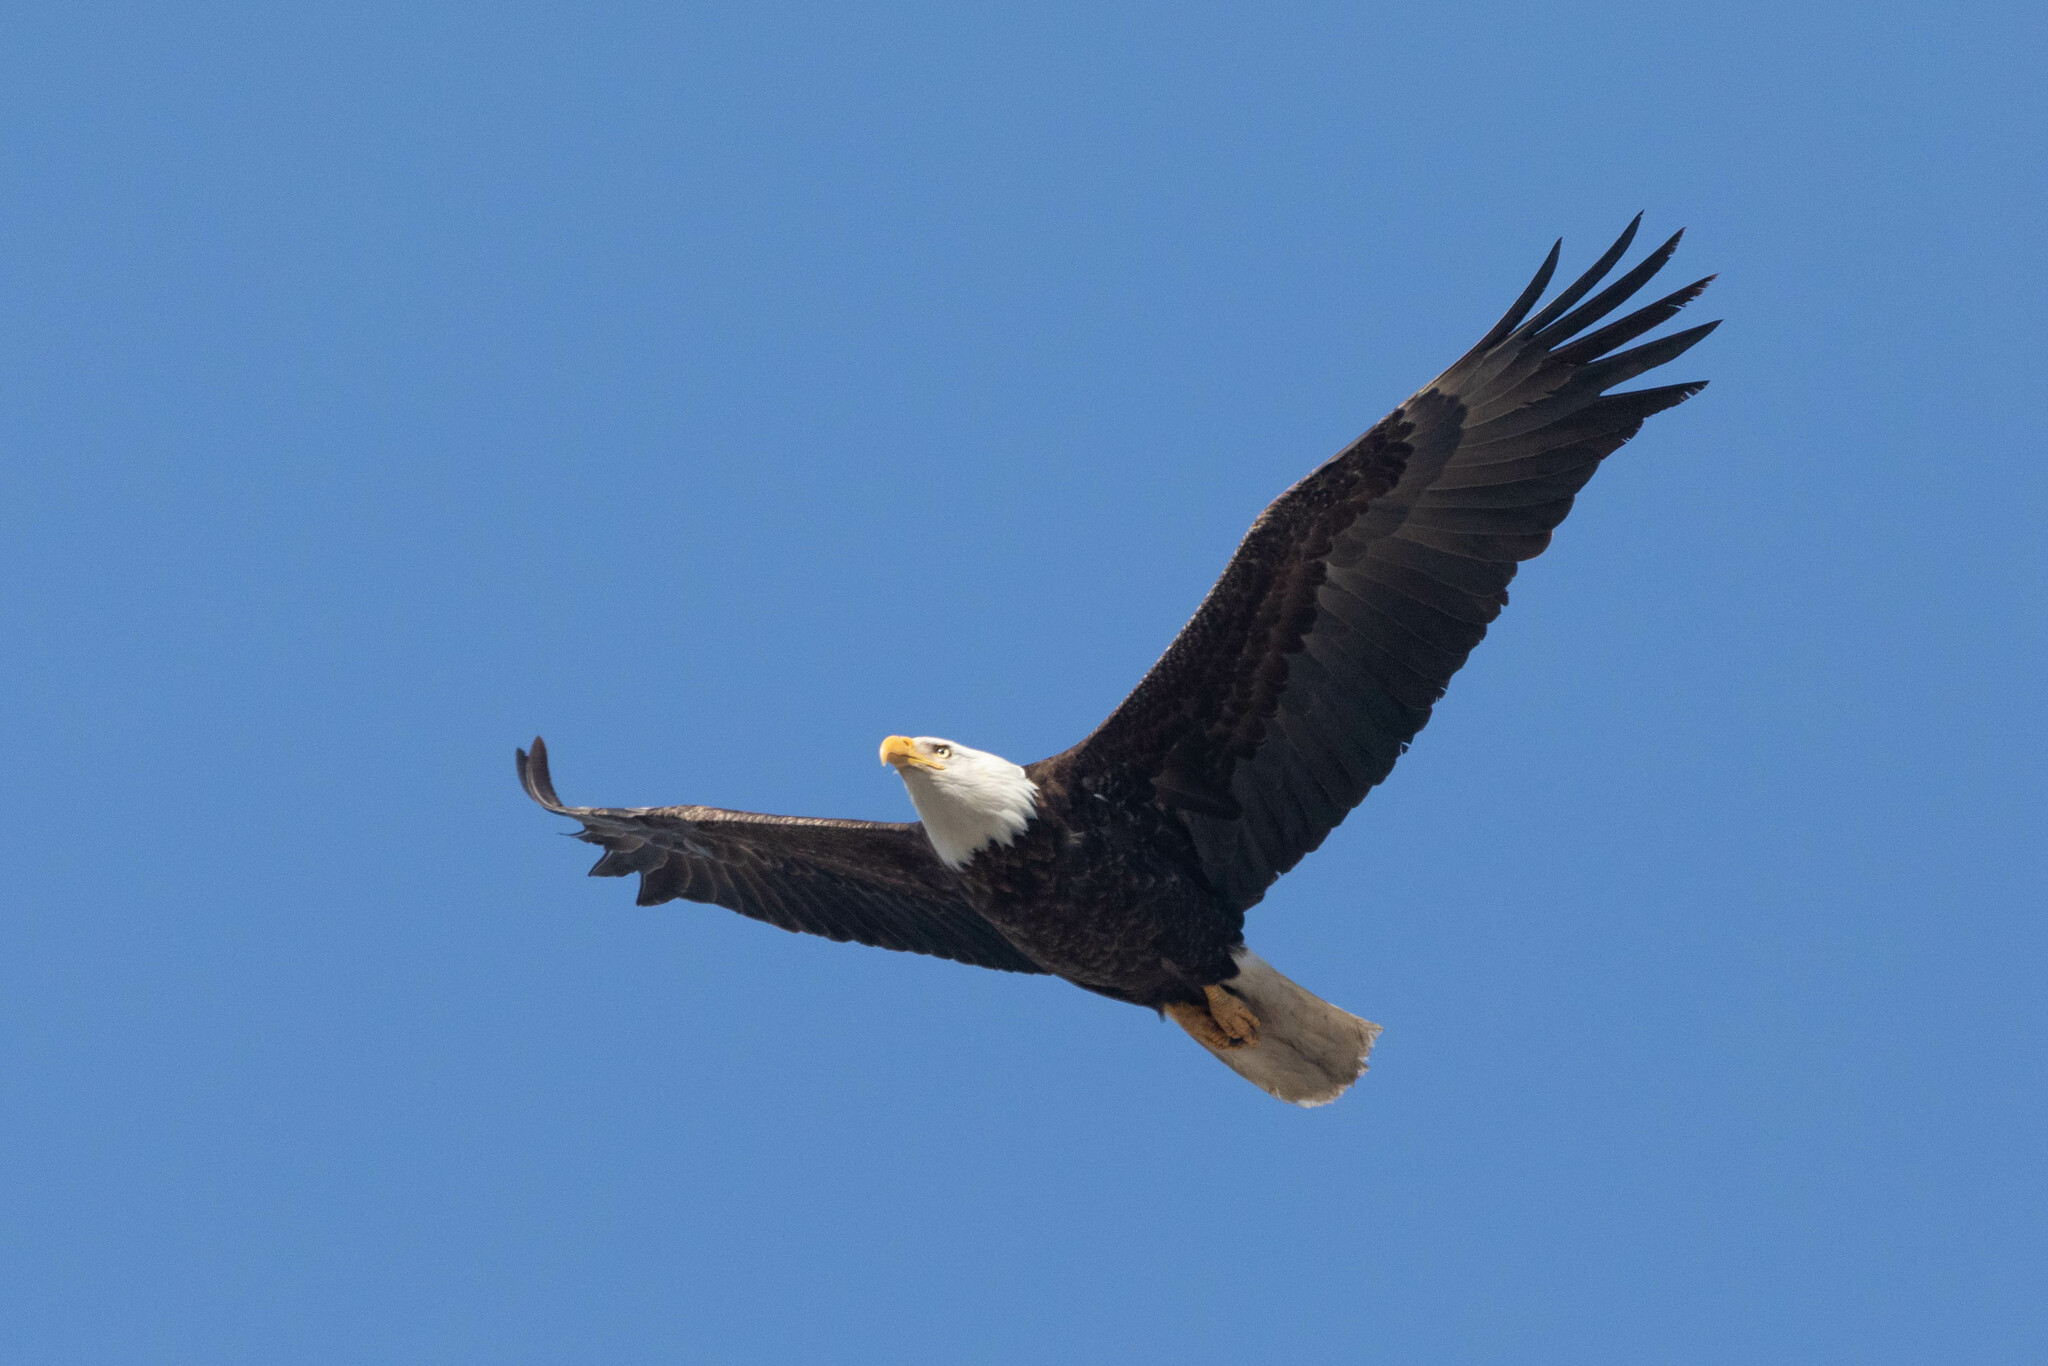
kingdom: Animalia
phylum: Chordata
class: Aves
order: Accipitriformes
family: Accipitridae
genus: Haliaeetus
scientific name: Haliaeetus leucocephalus
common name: Bald eagle
